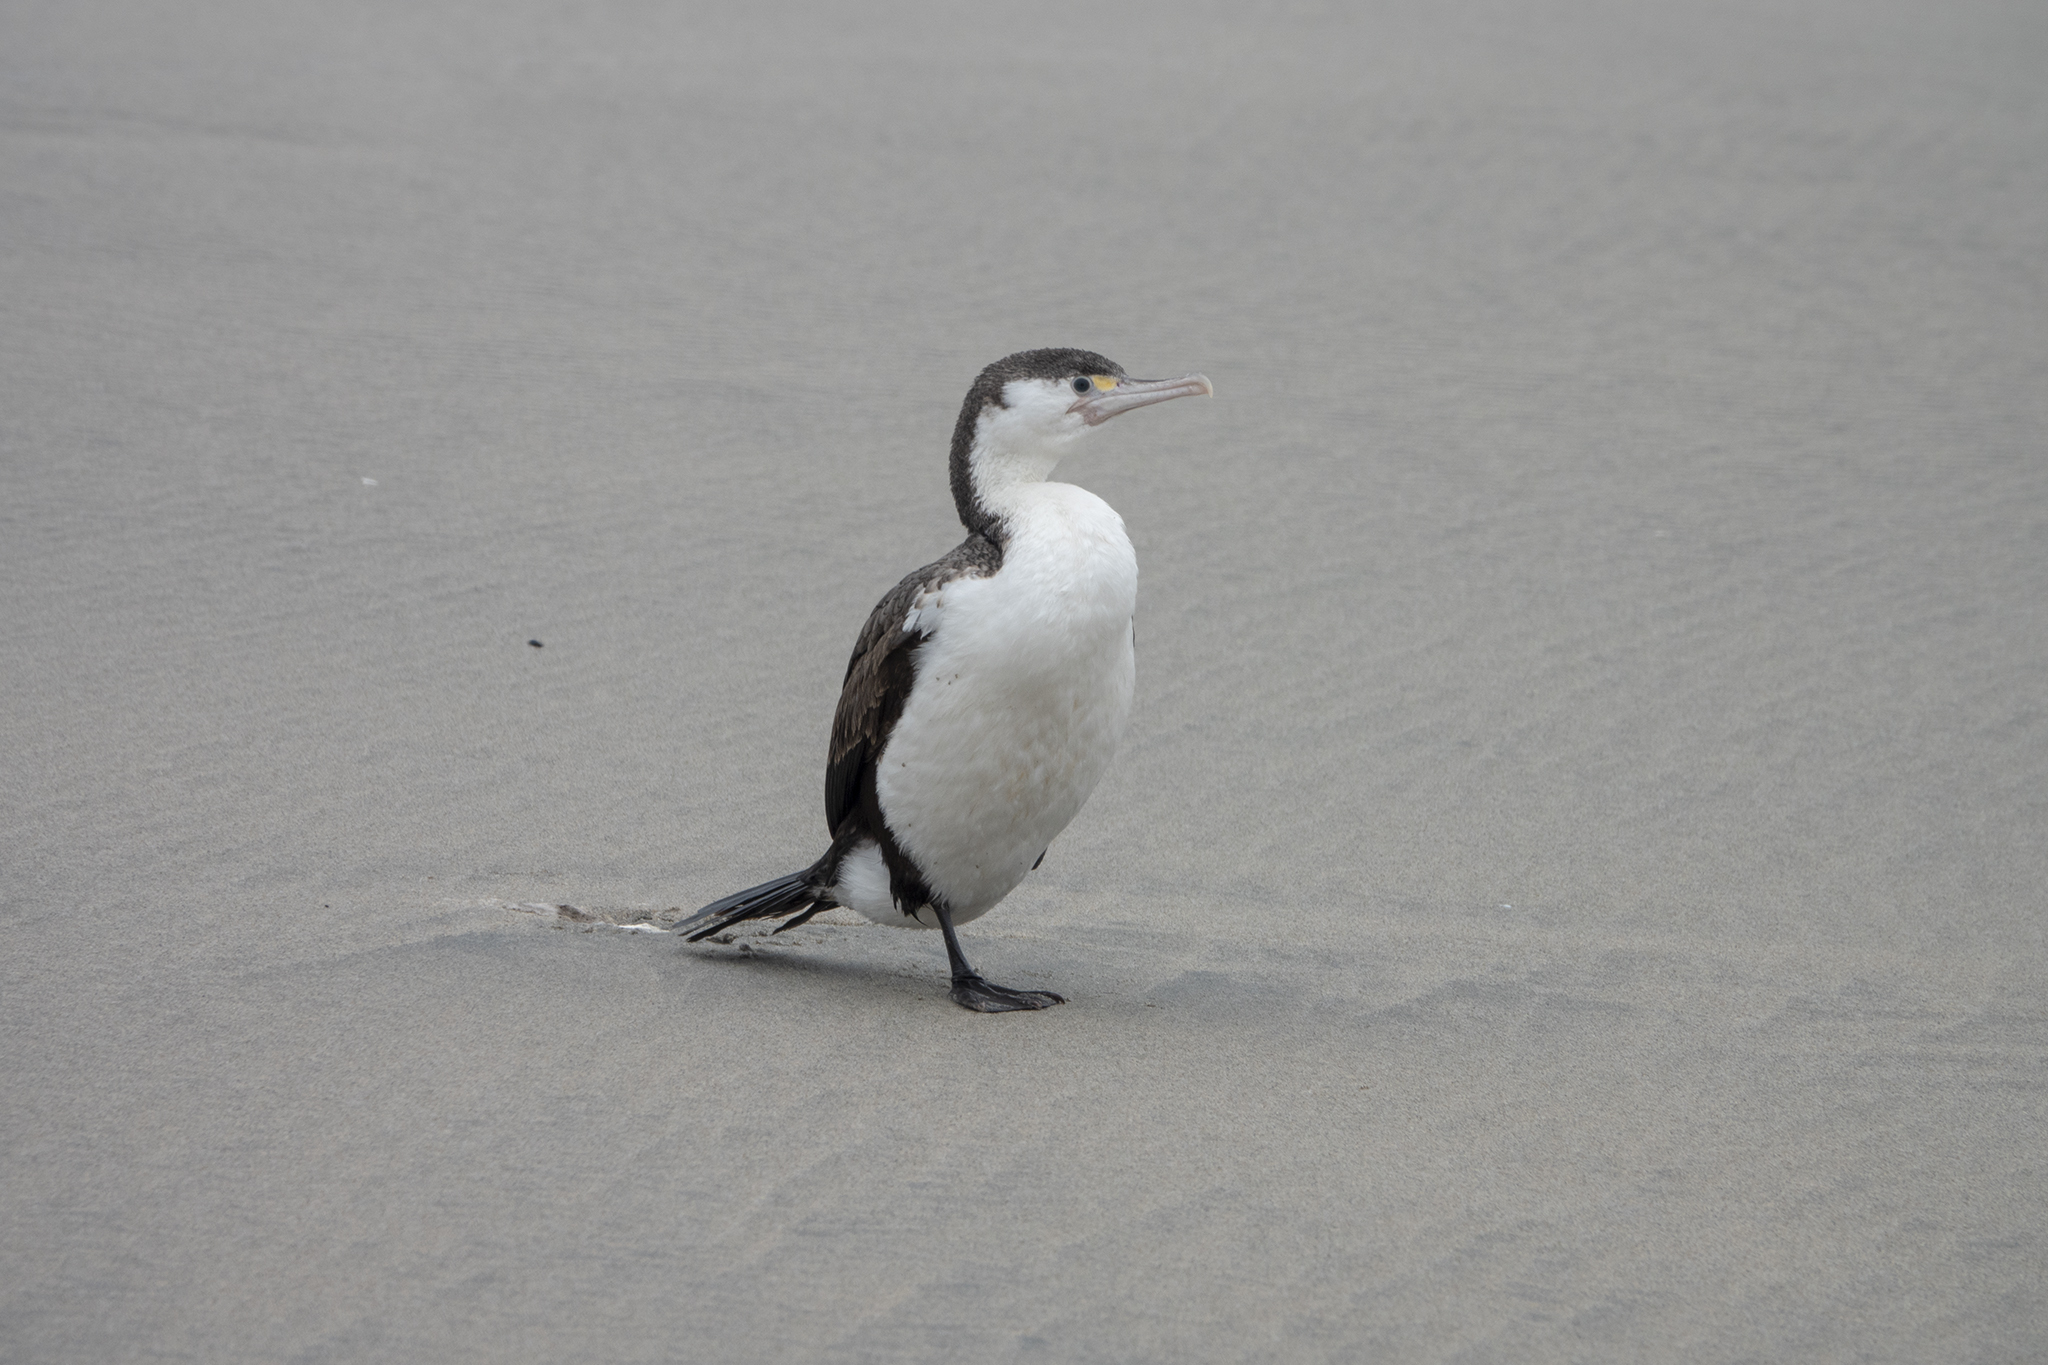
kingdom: Animalia
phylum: Chordata
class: Aves
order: Suliformes
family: Phalacrocoracidae
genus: Phalacrocorax
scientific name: Phalacrocorax varius
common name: Pied cormorant
